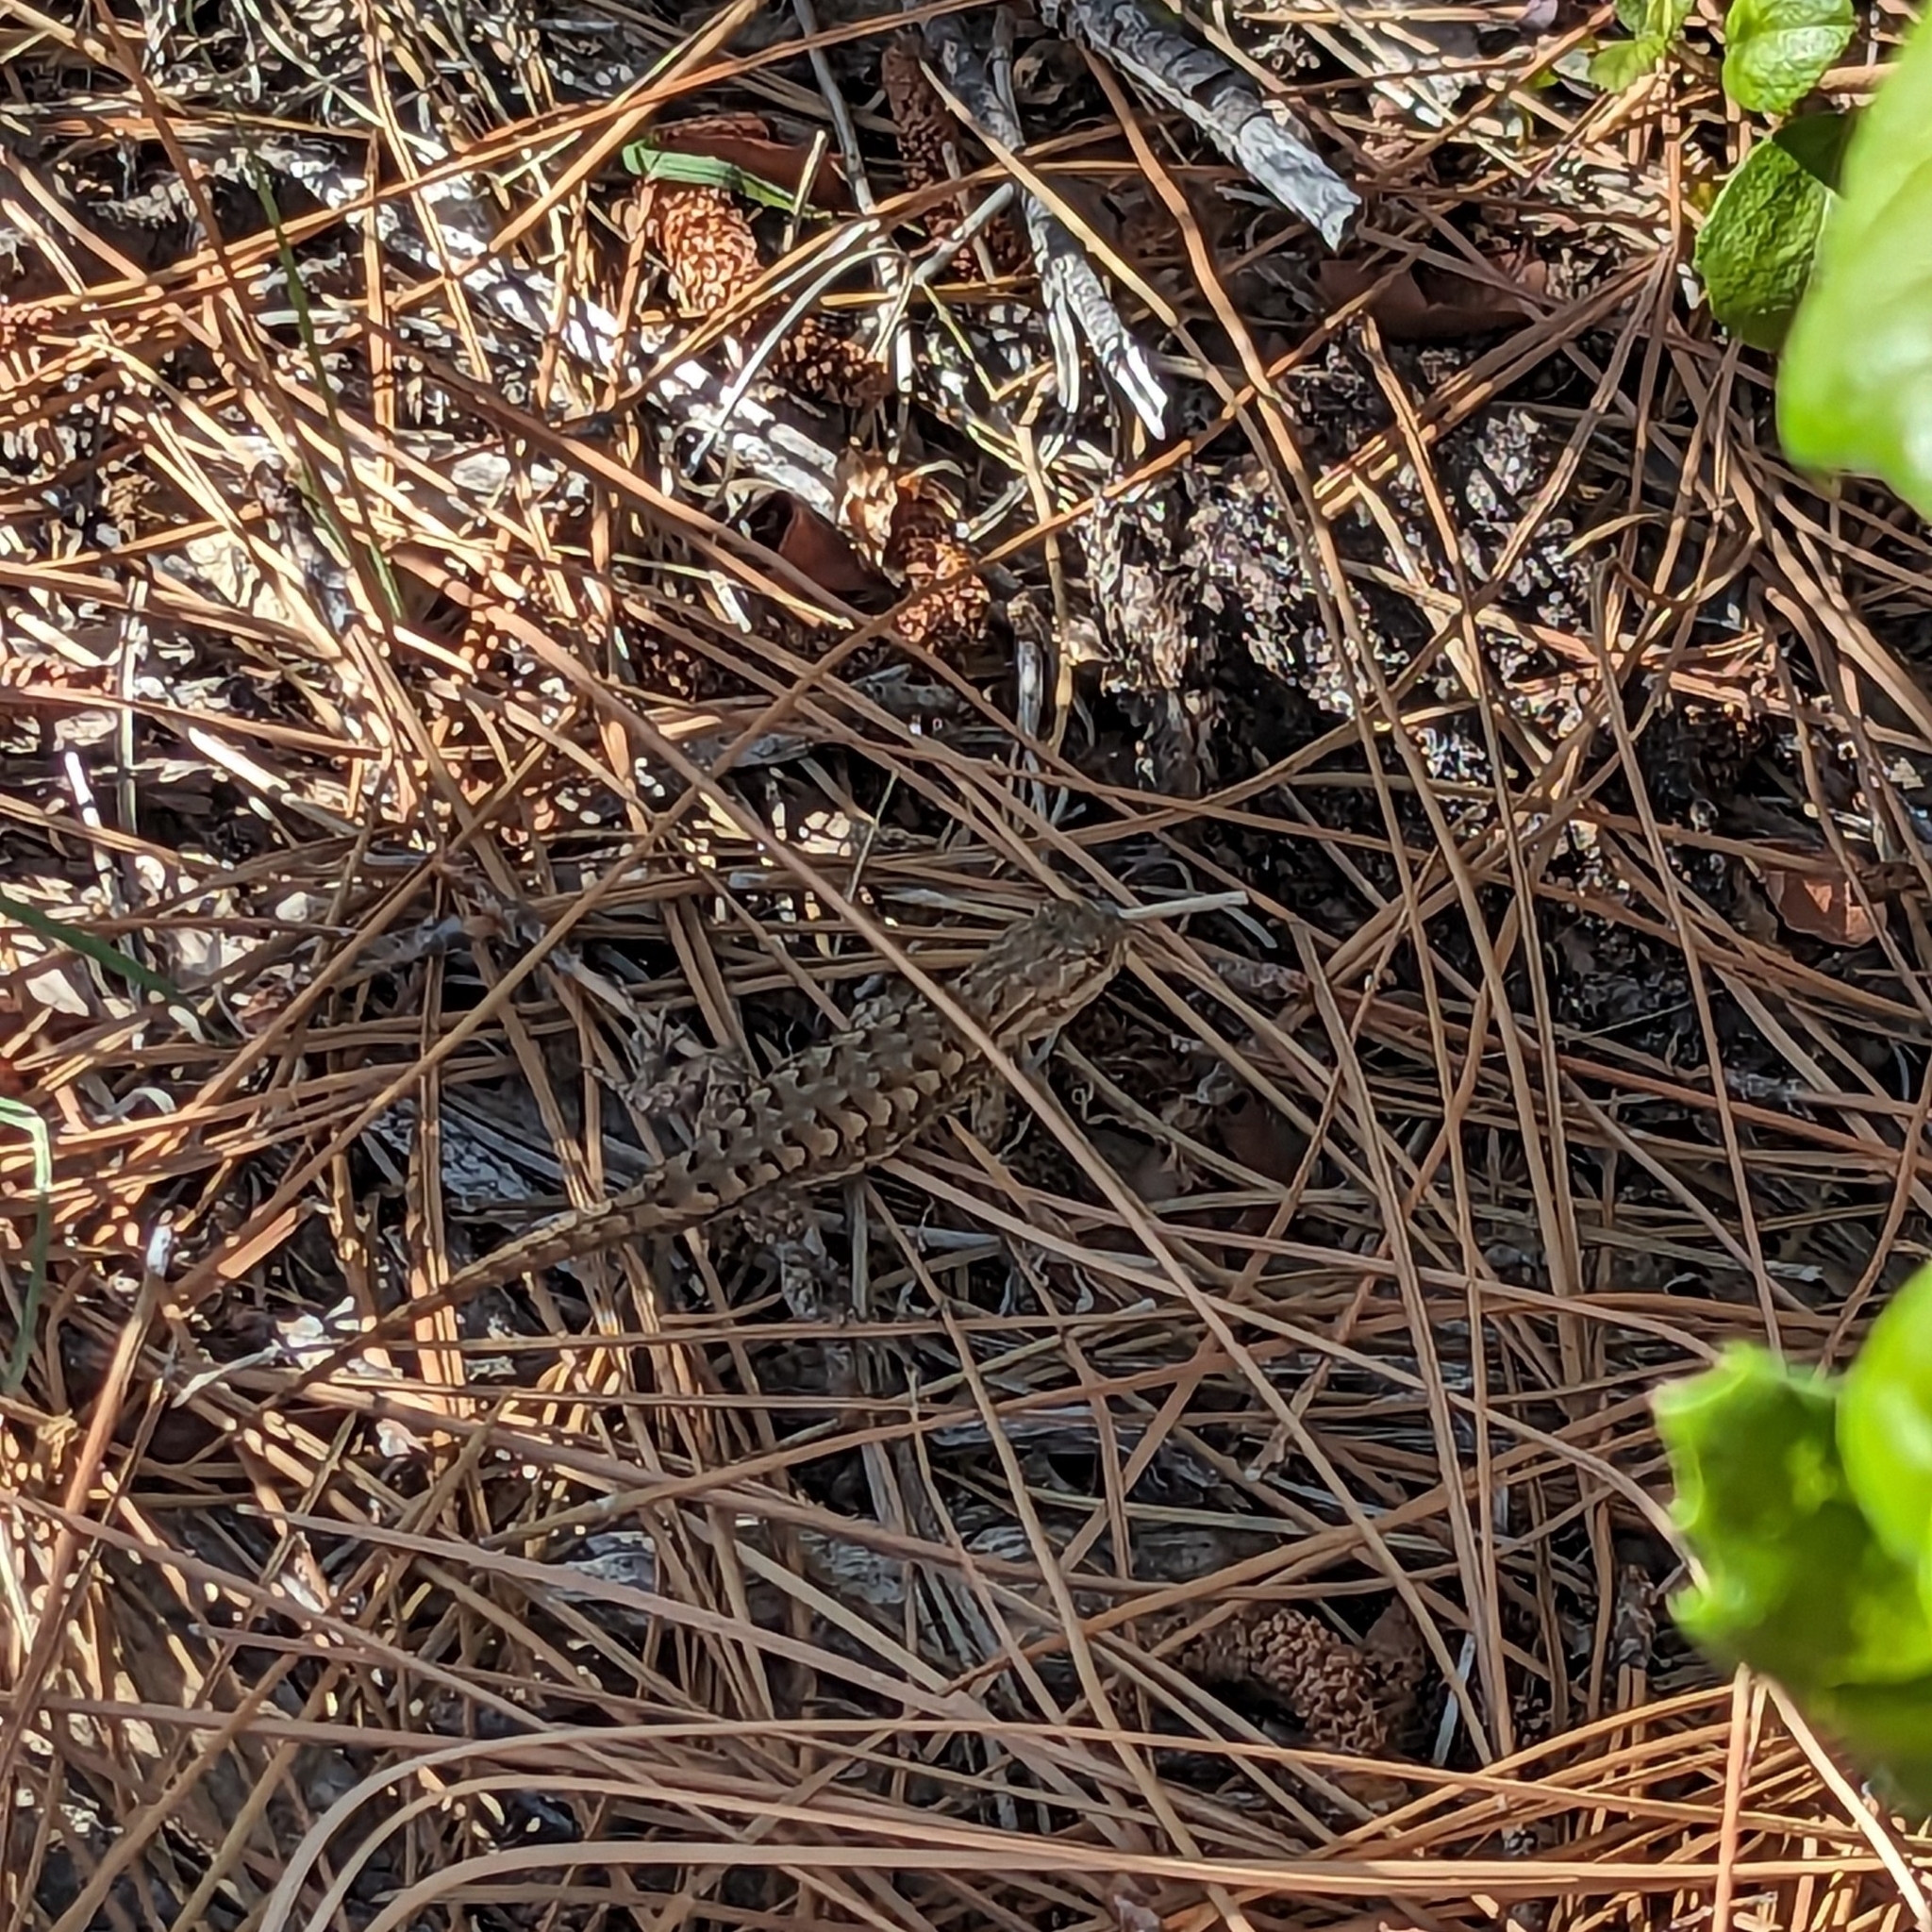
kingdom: Animalia
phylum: Chordata
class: Squamata
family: Phrynosomatidae
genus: Sceloporus
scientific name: Sceloporus occidentalis
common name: Western fence lizard
